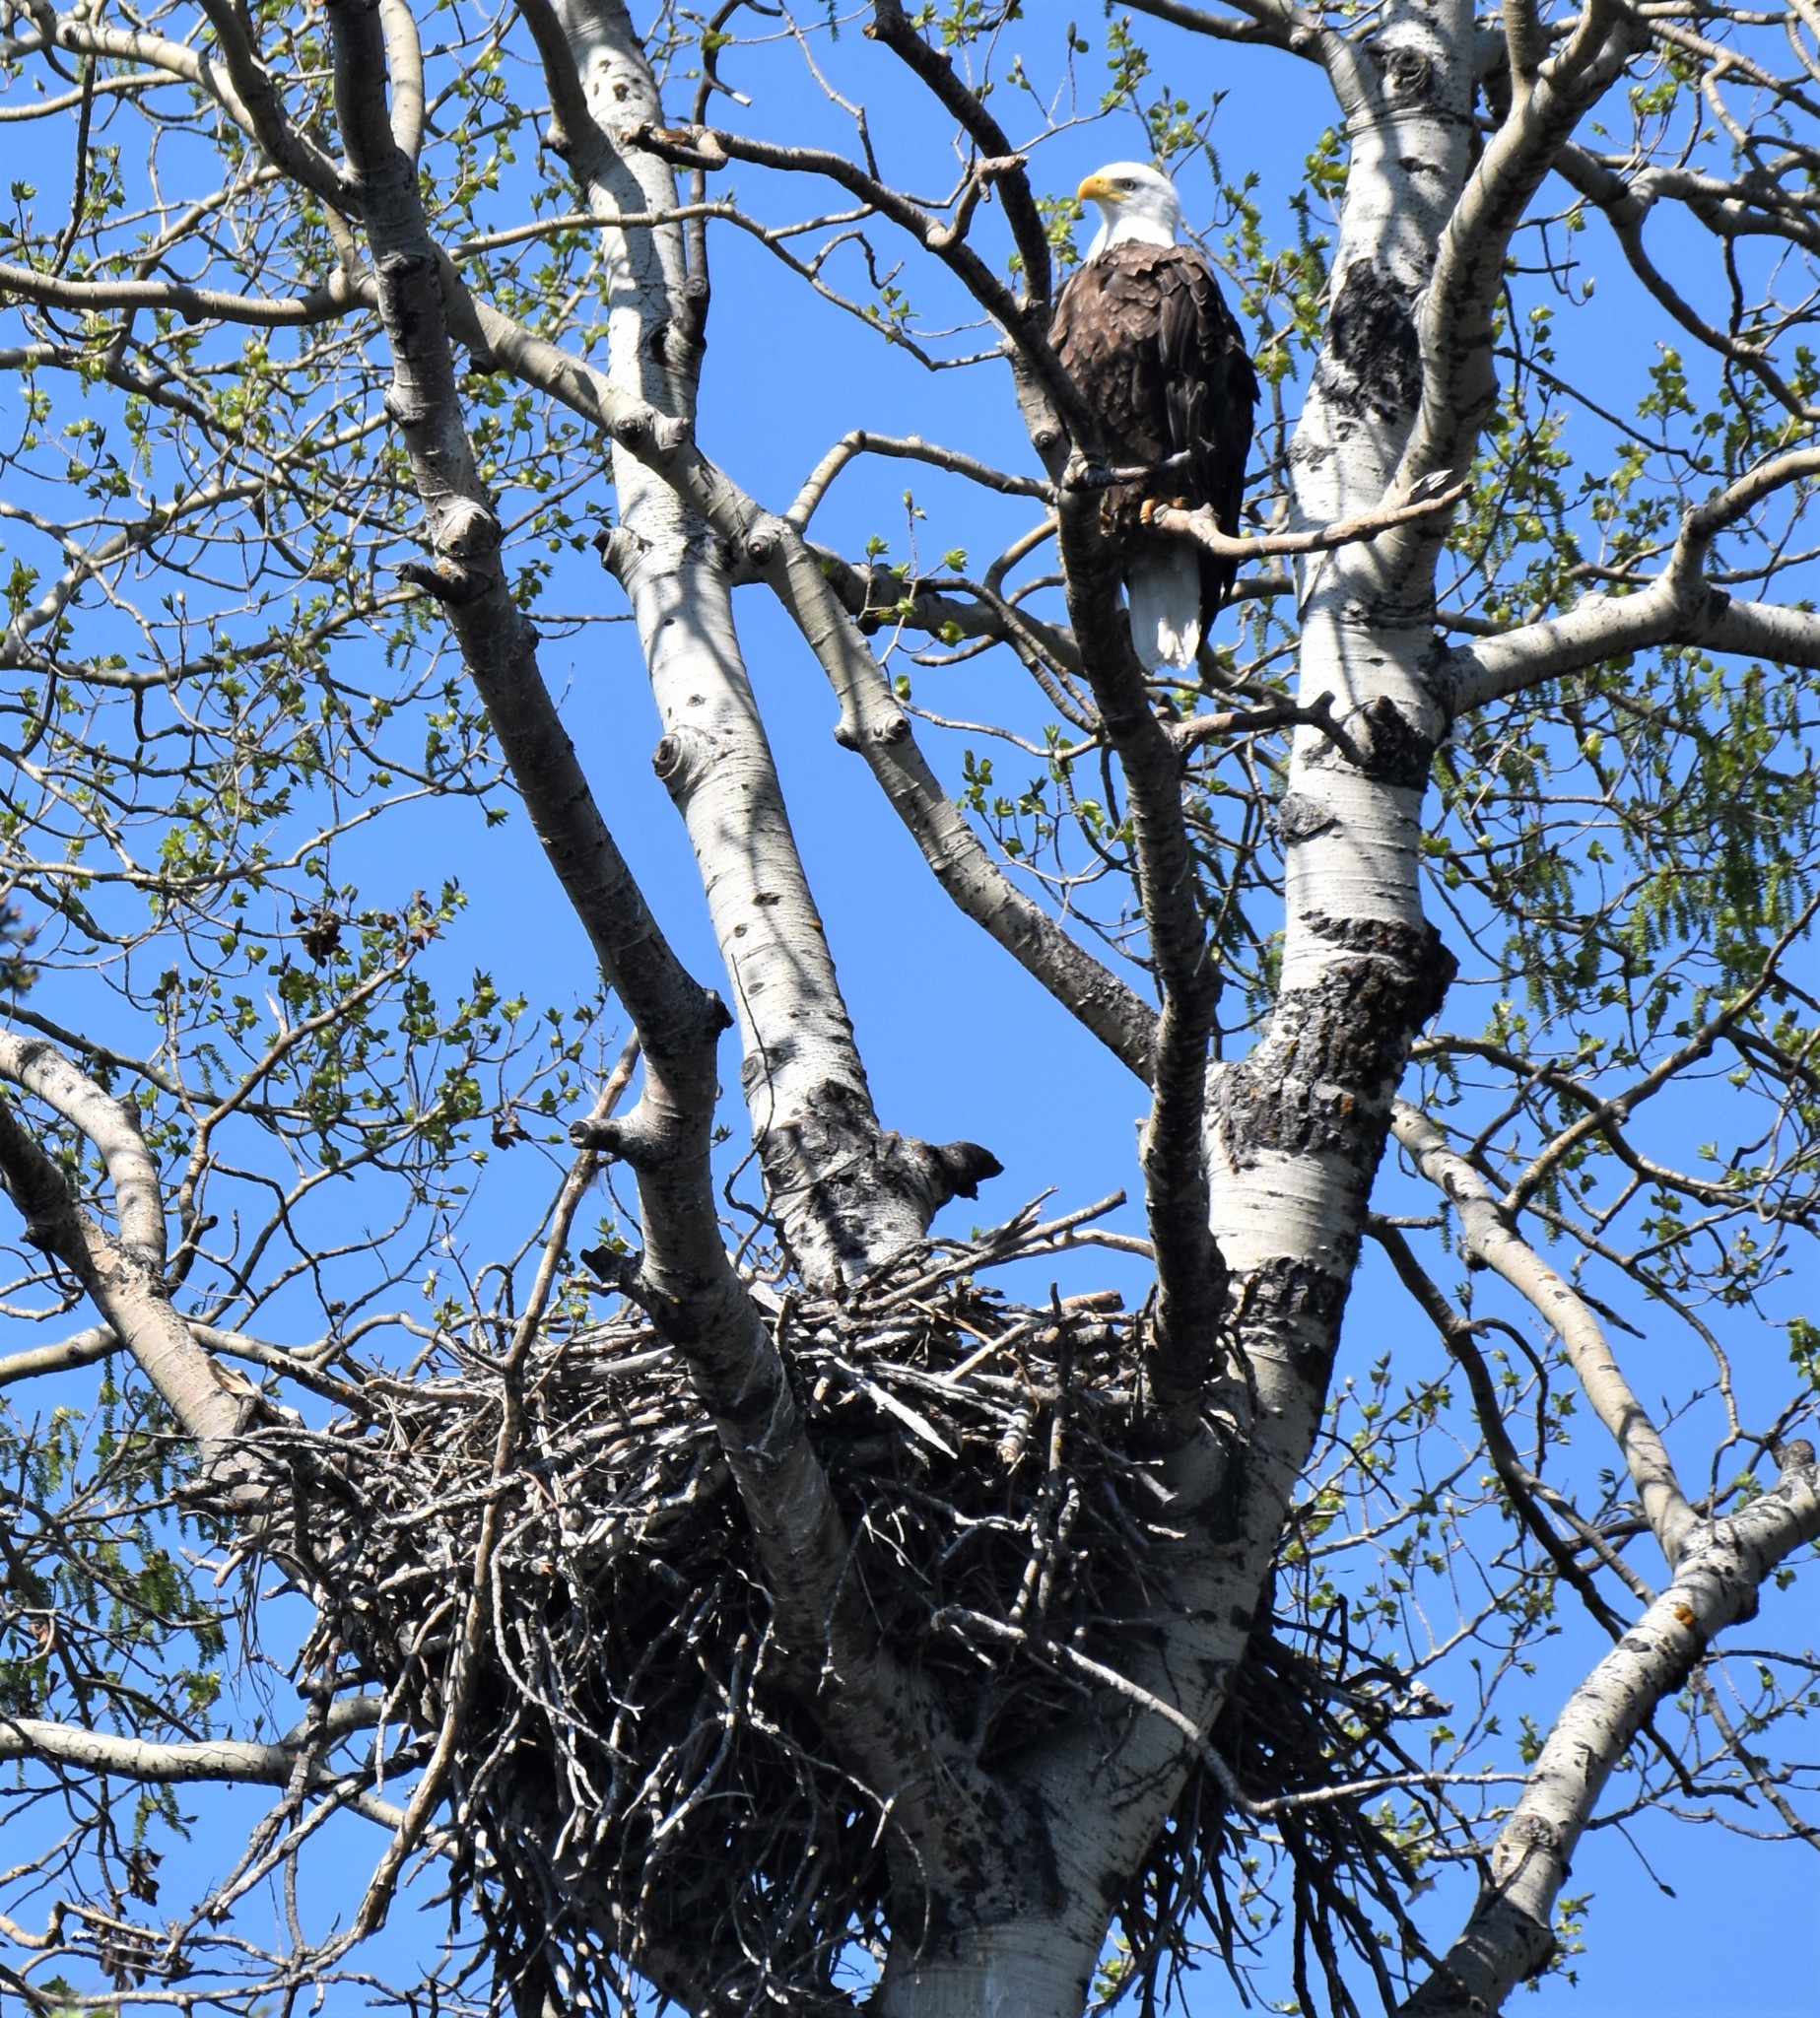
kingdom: Animalia
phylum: Chordata
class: Aves
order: Accipitriformes
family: Accipitridae
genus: Haliaeetus
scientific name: Haliaeetus leucocephalus
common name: Bald eagle
